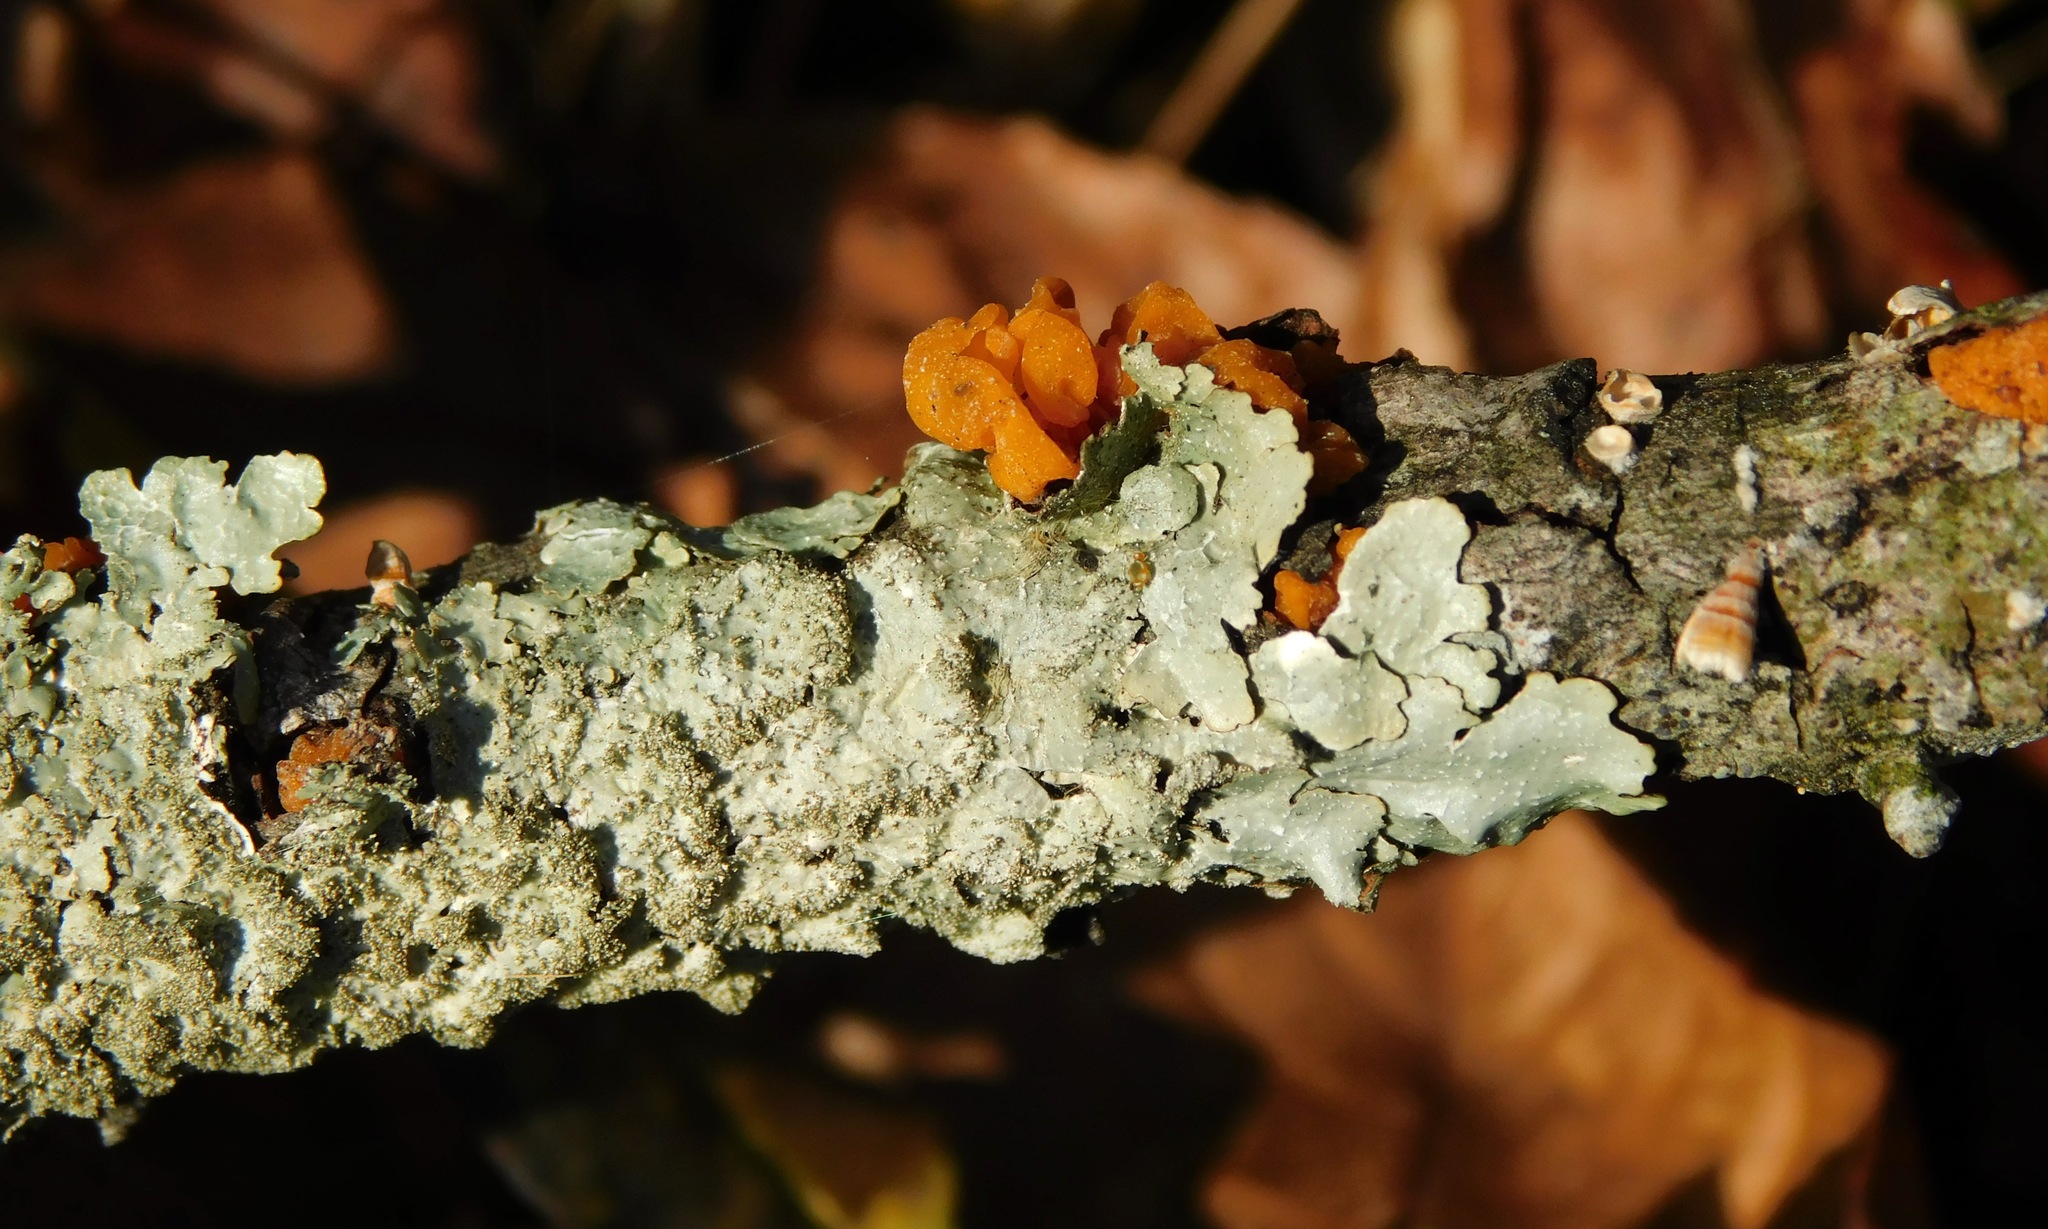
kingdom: Fungi
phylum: Basidiomycota
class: Tremellomycetes
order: Tremellales
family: Tremellaceae
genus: Tremella
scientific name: Tremella mesenterica
